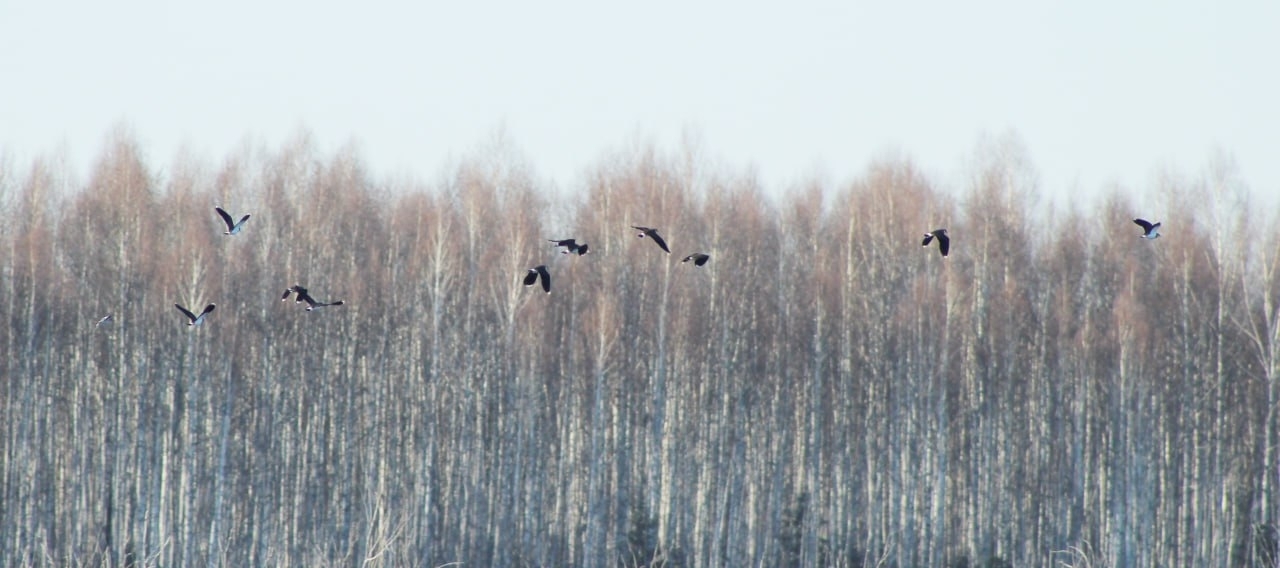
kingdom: Animalia
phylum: Chordata
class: Aves
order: Charadriiformes
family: Charadriidae
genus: Vanellus
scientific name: Vanellus vanellus
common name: Northern lapwing
